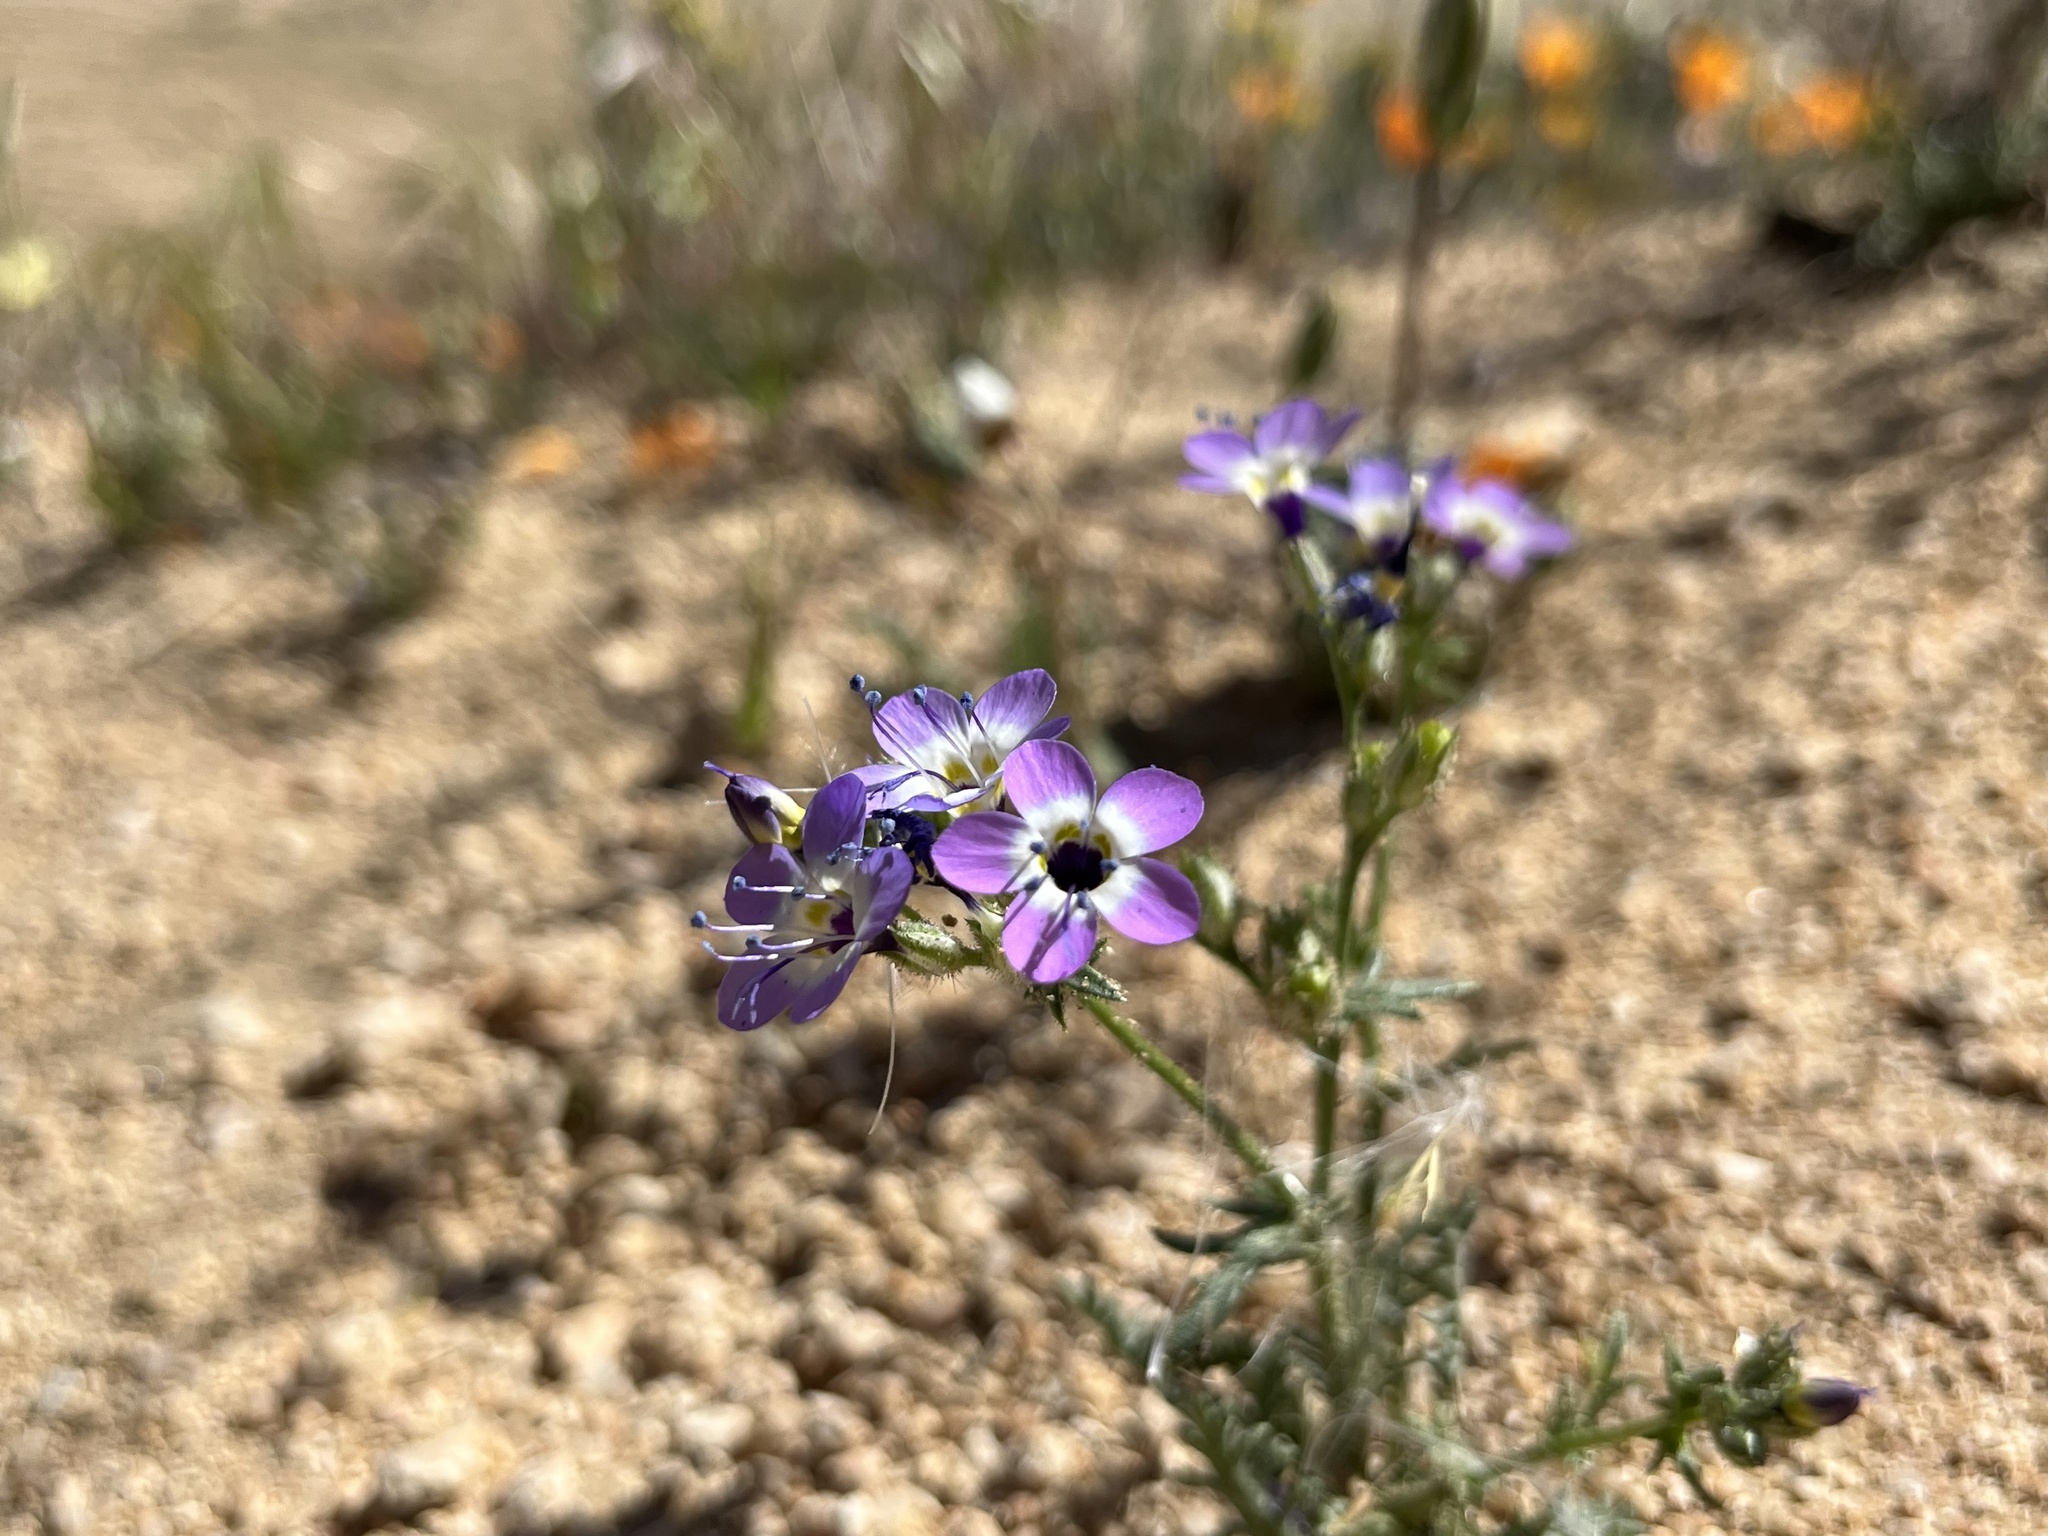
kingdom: Plantae
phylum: Tracheophyta
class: Magnoliopsida
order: Ericales
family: Polemoniaceae
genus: Gilia
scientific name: Gilia brecciarum
